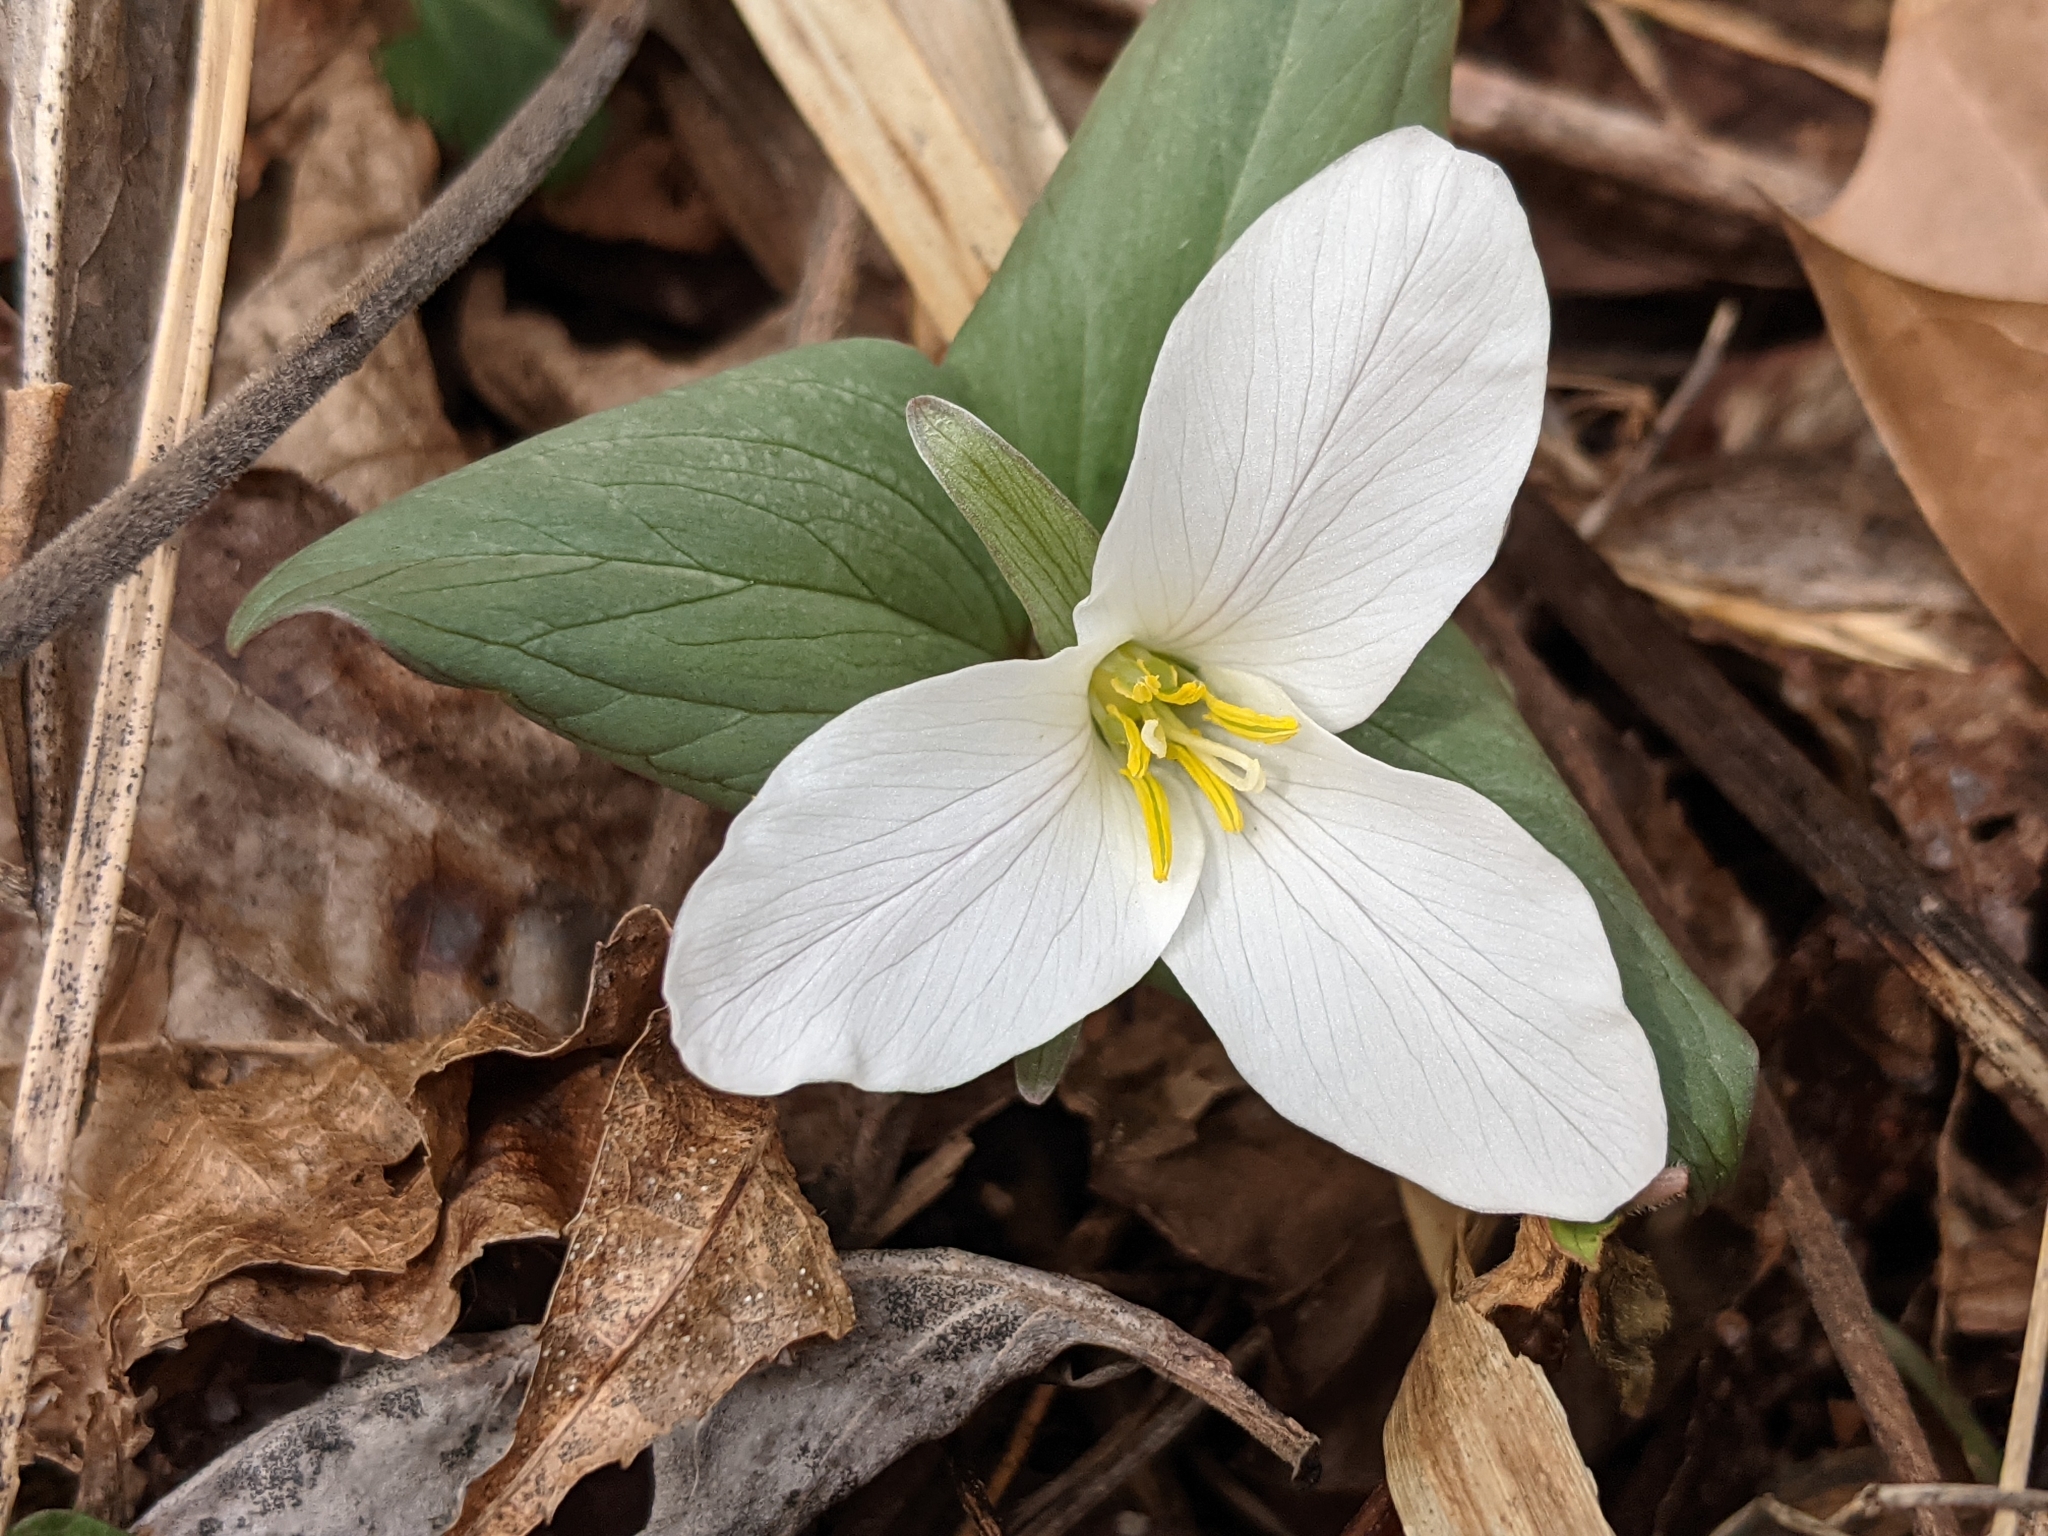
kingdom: Plantae
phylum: Tracheophyta
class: Liliopsida
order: Liliales
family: Melanthiaceae
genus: Trillium
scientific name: Trillium nivale
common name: Dwarf white trillium
